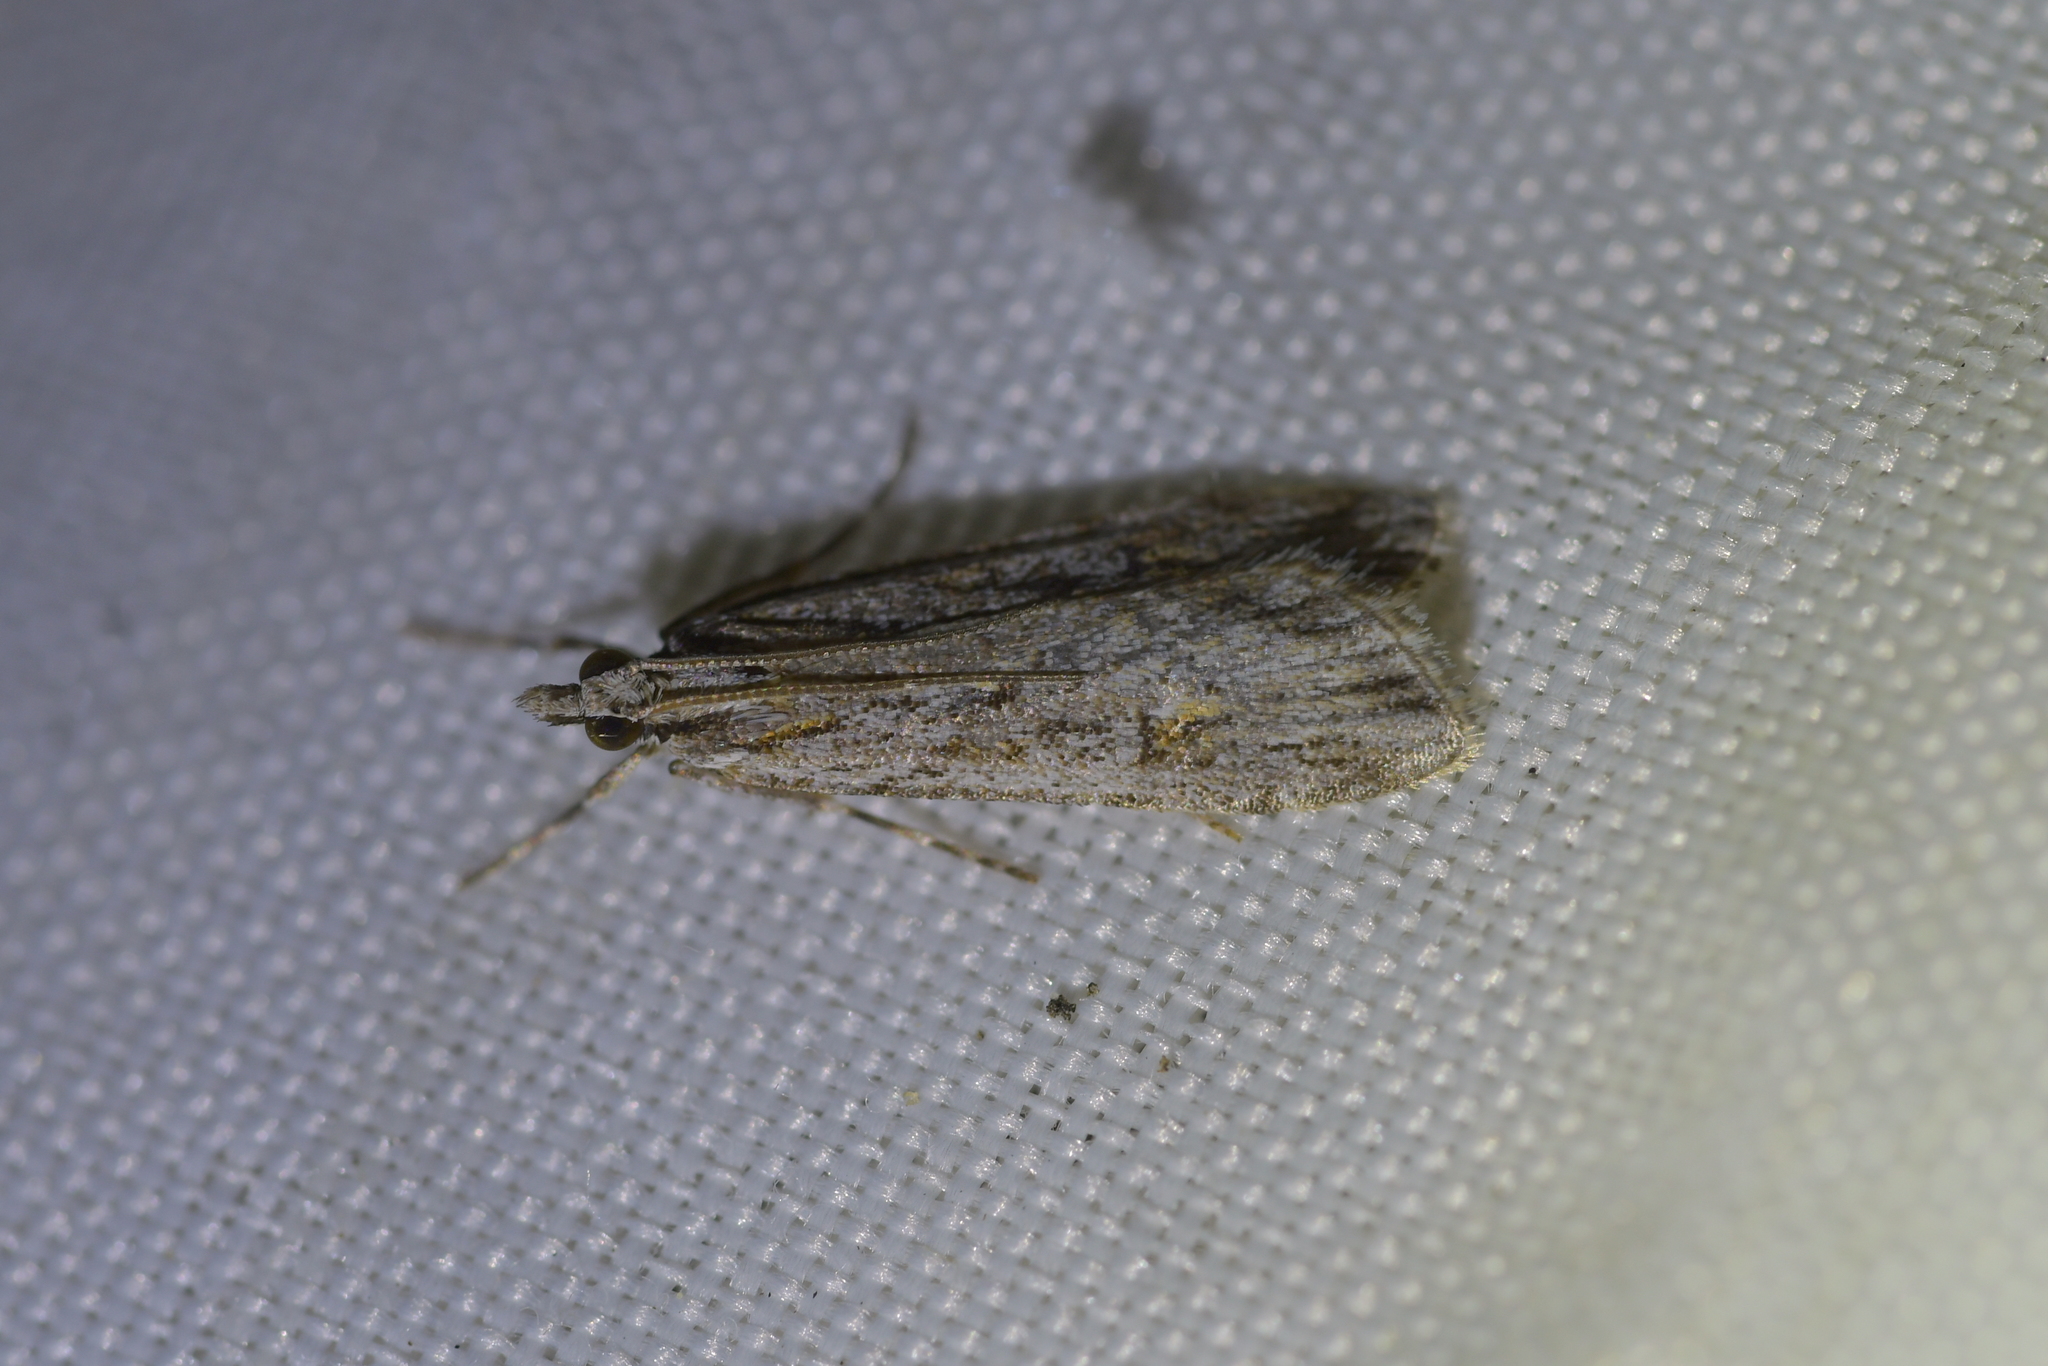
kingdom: Animalia
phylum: Arthropoda
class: Insecta
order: Lepidoptera
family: Crambidae
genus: Scoparia
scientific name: Scoparia chalicodes
